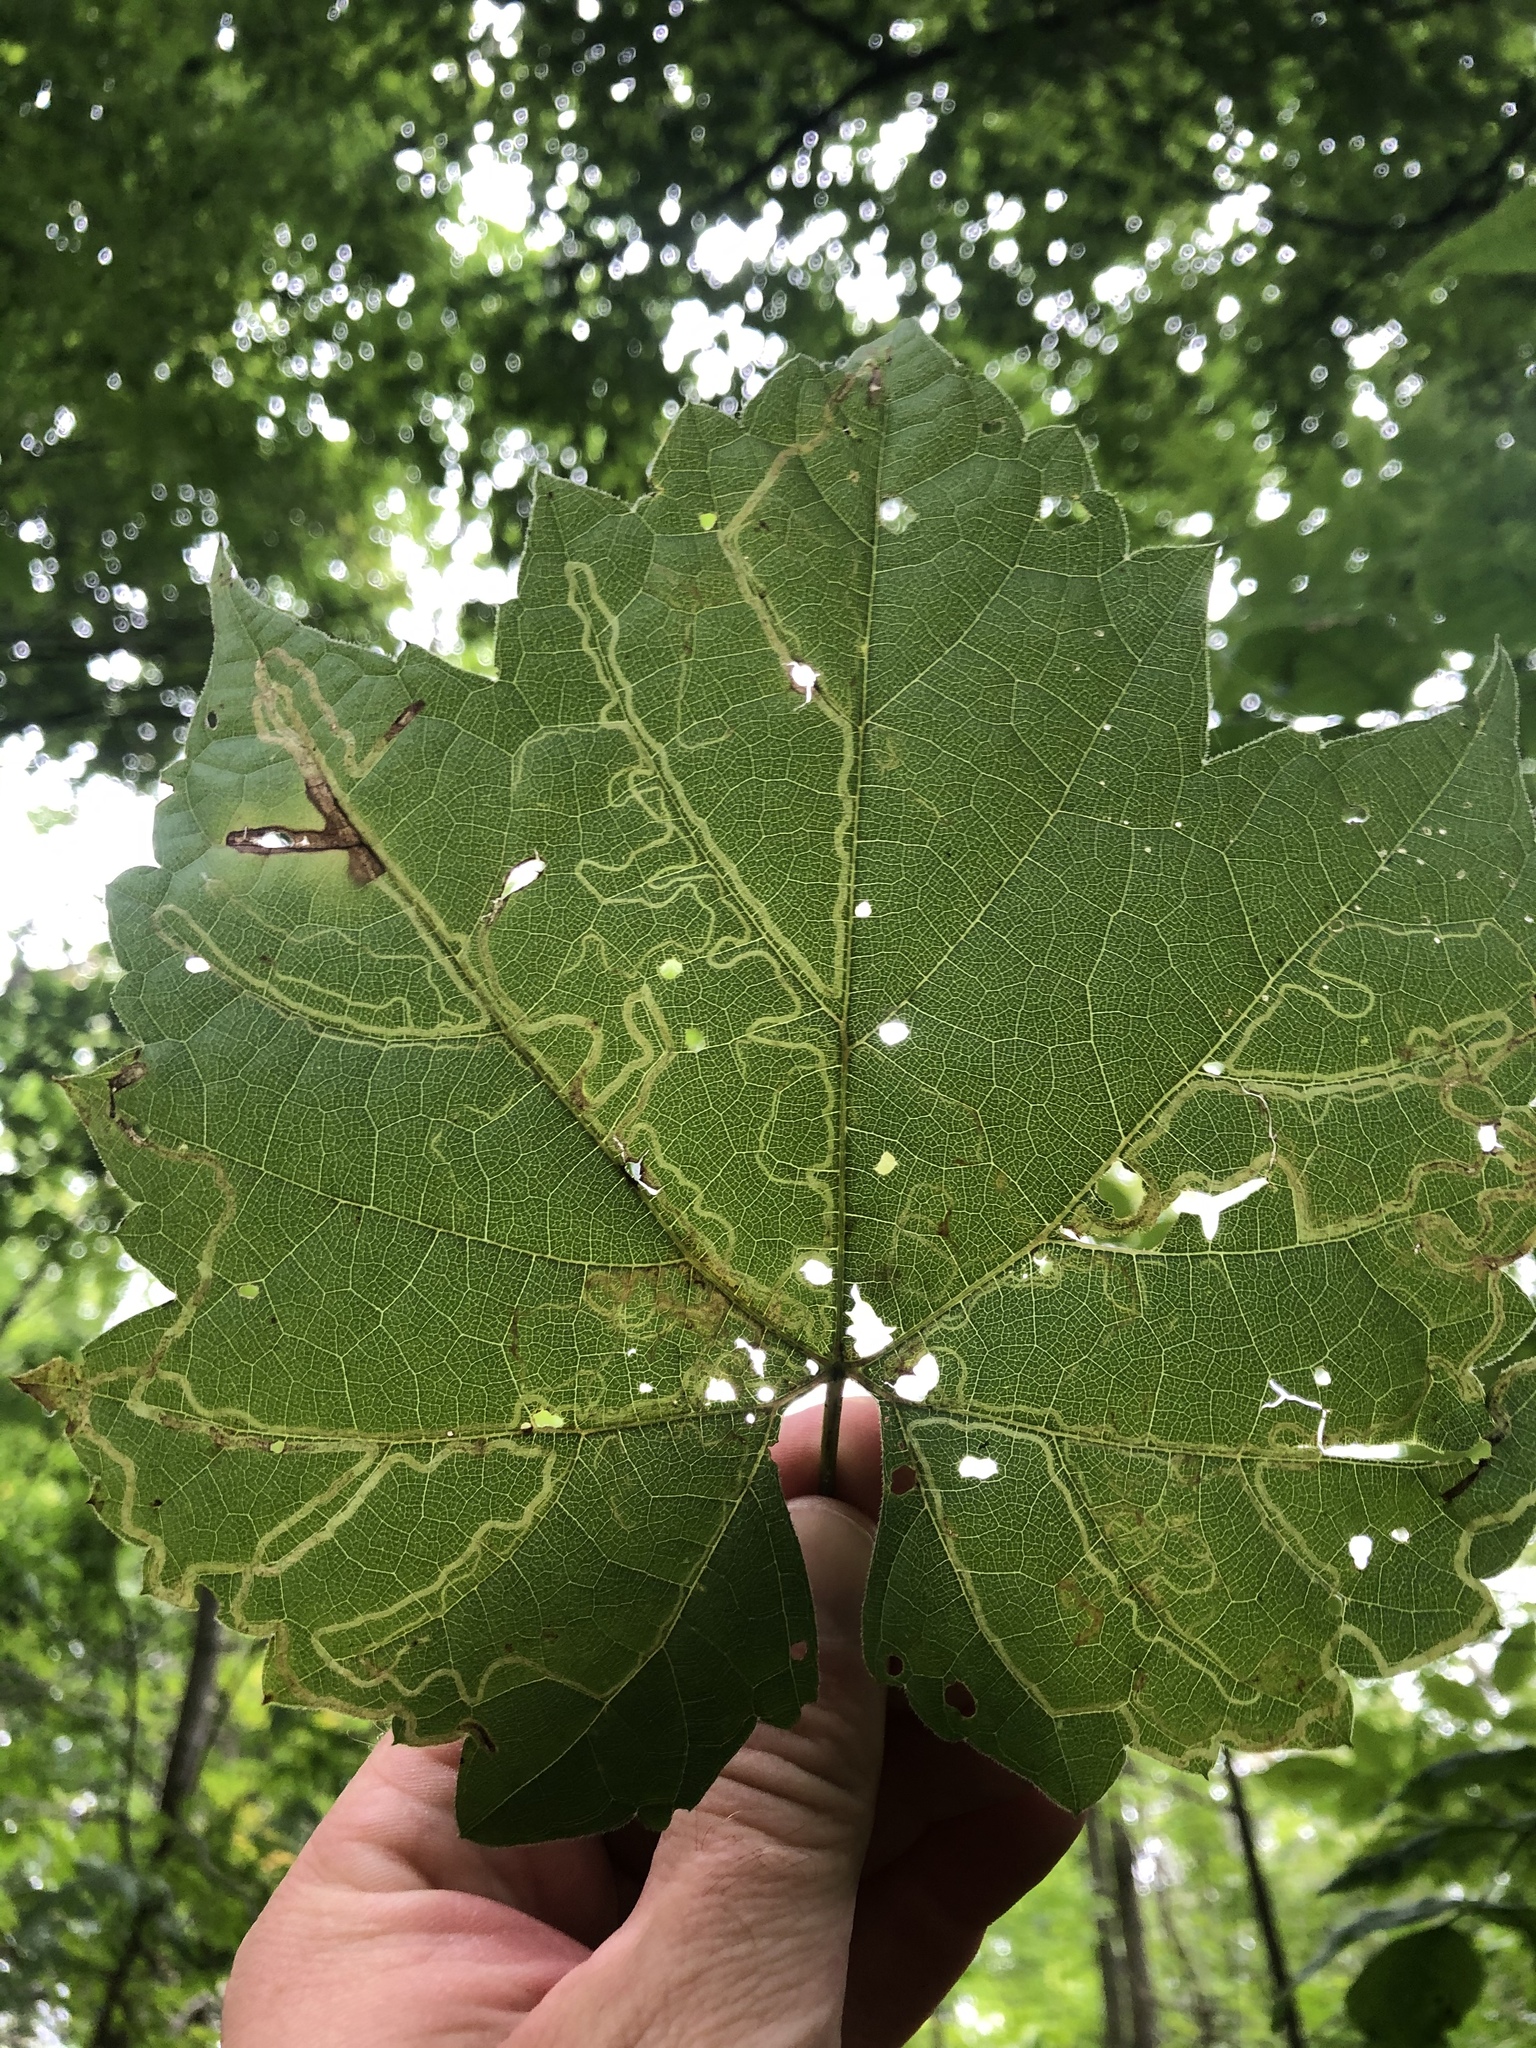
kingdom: Animalia
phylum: Arthropoda
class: Insecta
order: Lepidoptera
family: Gracillariidae
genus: Phyllocnistis
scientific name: Phyllocnistis vitifoliella
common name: Grape leaf-miner moth
